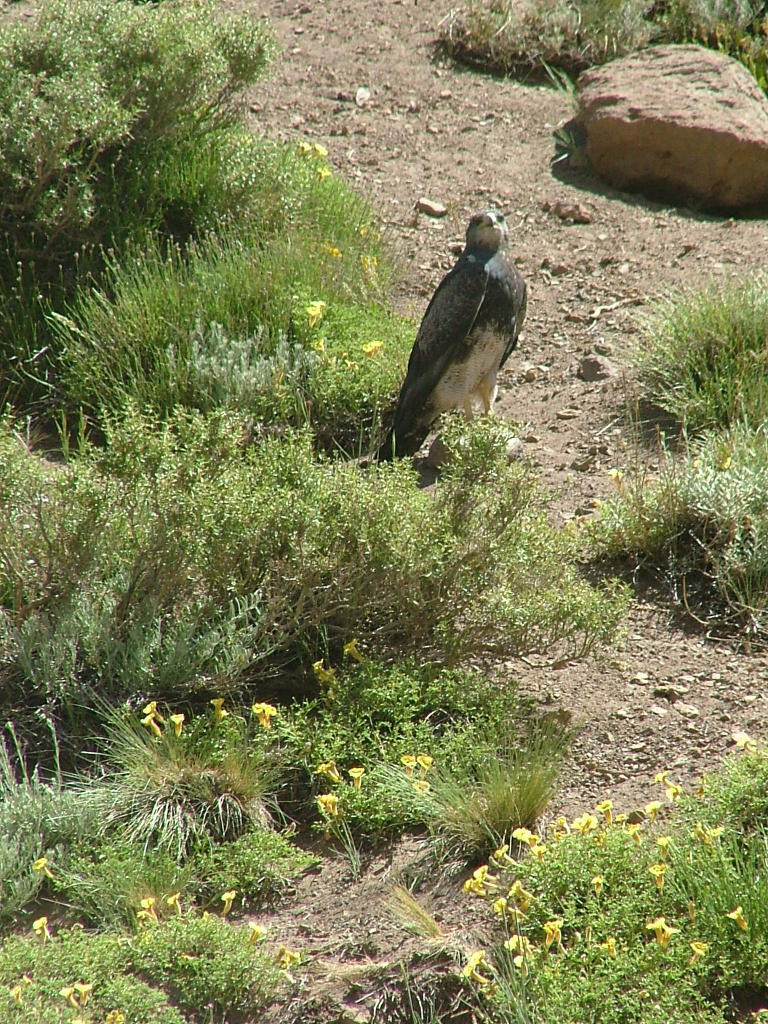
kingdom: Animalia
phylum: Chordata
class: Aves
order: Accipitriformes
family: Accipitridae
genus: Geranoaetus
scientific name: Geranoaetus melanoleucus
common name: Black-chested buzzard-eagle
